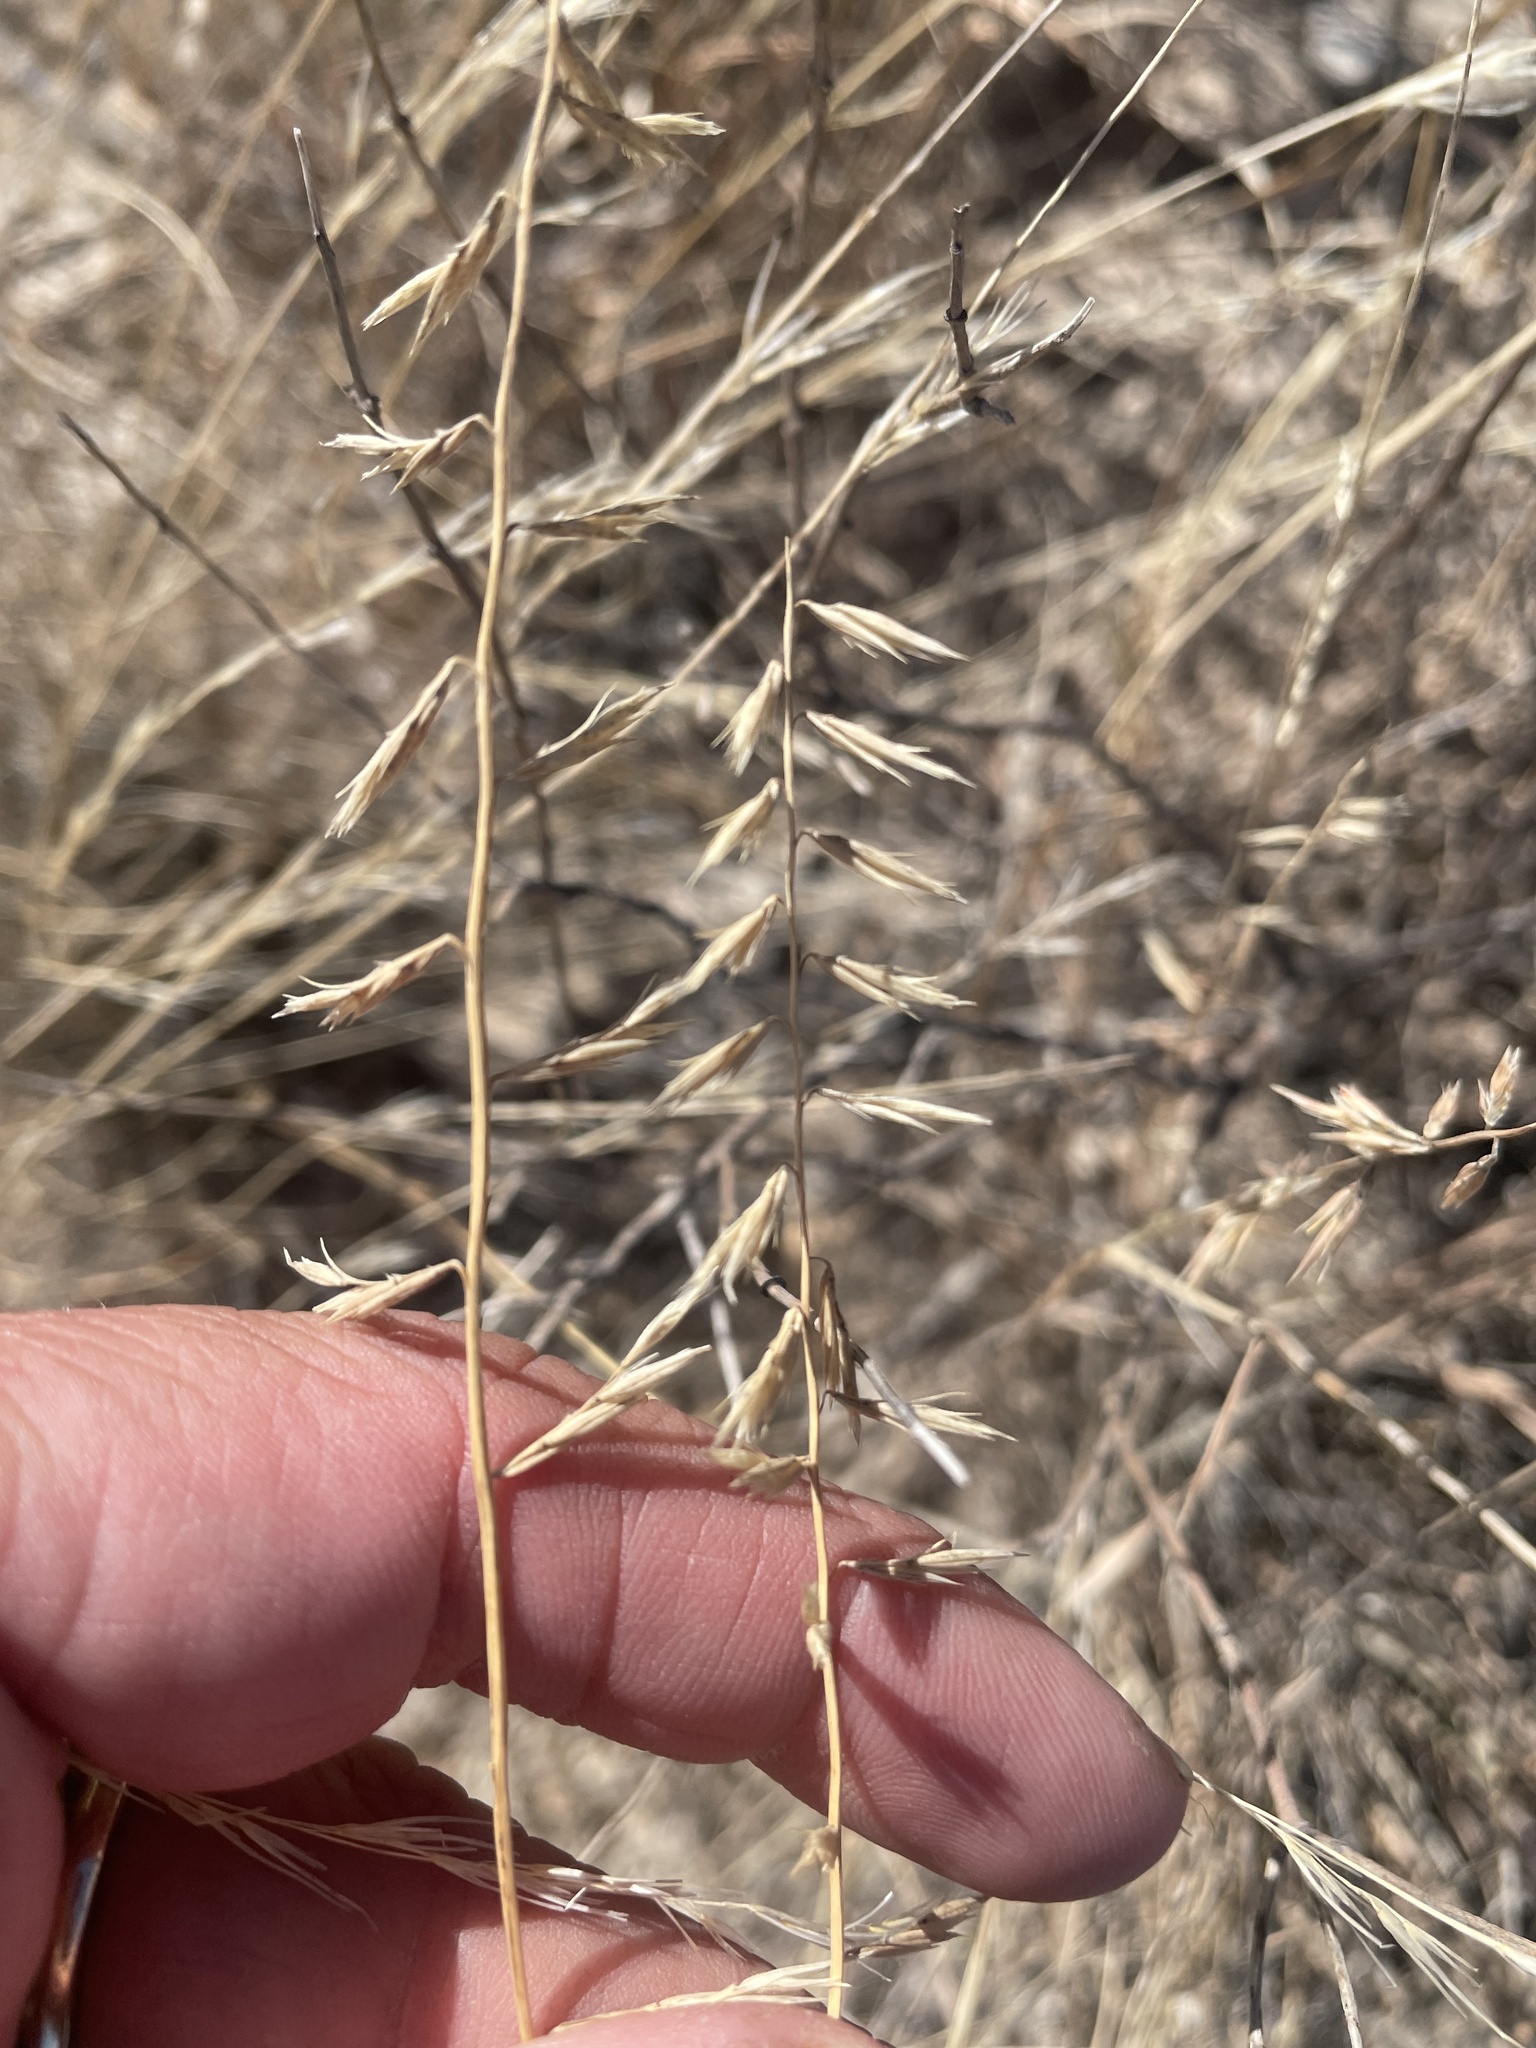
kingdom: Plantae
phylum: Tracheophyta
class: Liliopsida
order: Poales
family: Poaceae
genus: Bouteloua
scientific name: Bouteloua curtipendula
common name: Side-oats grama
